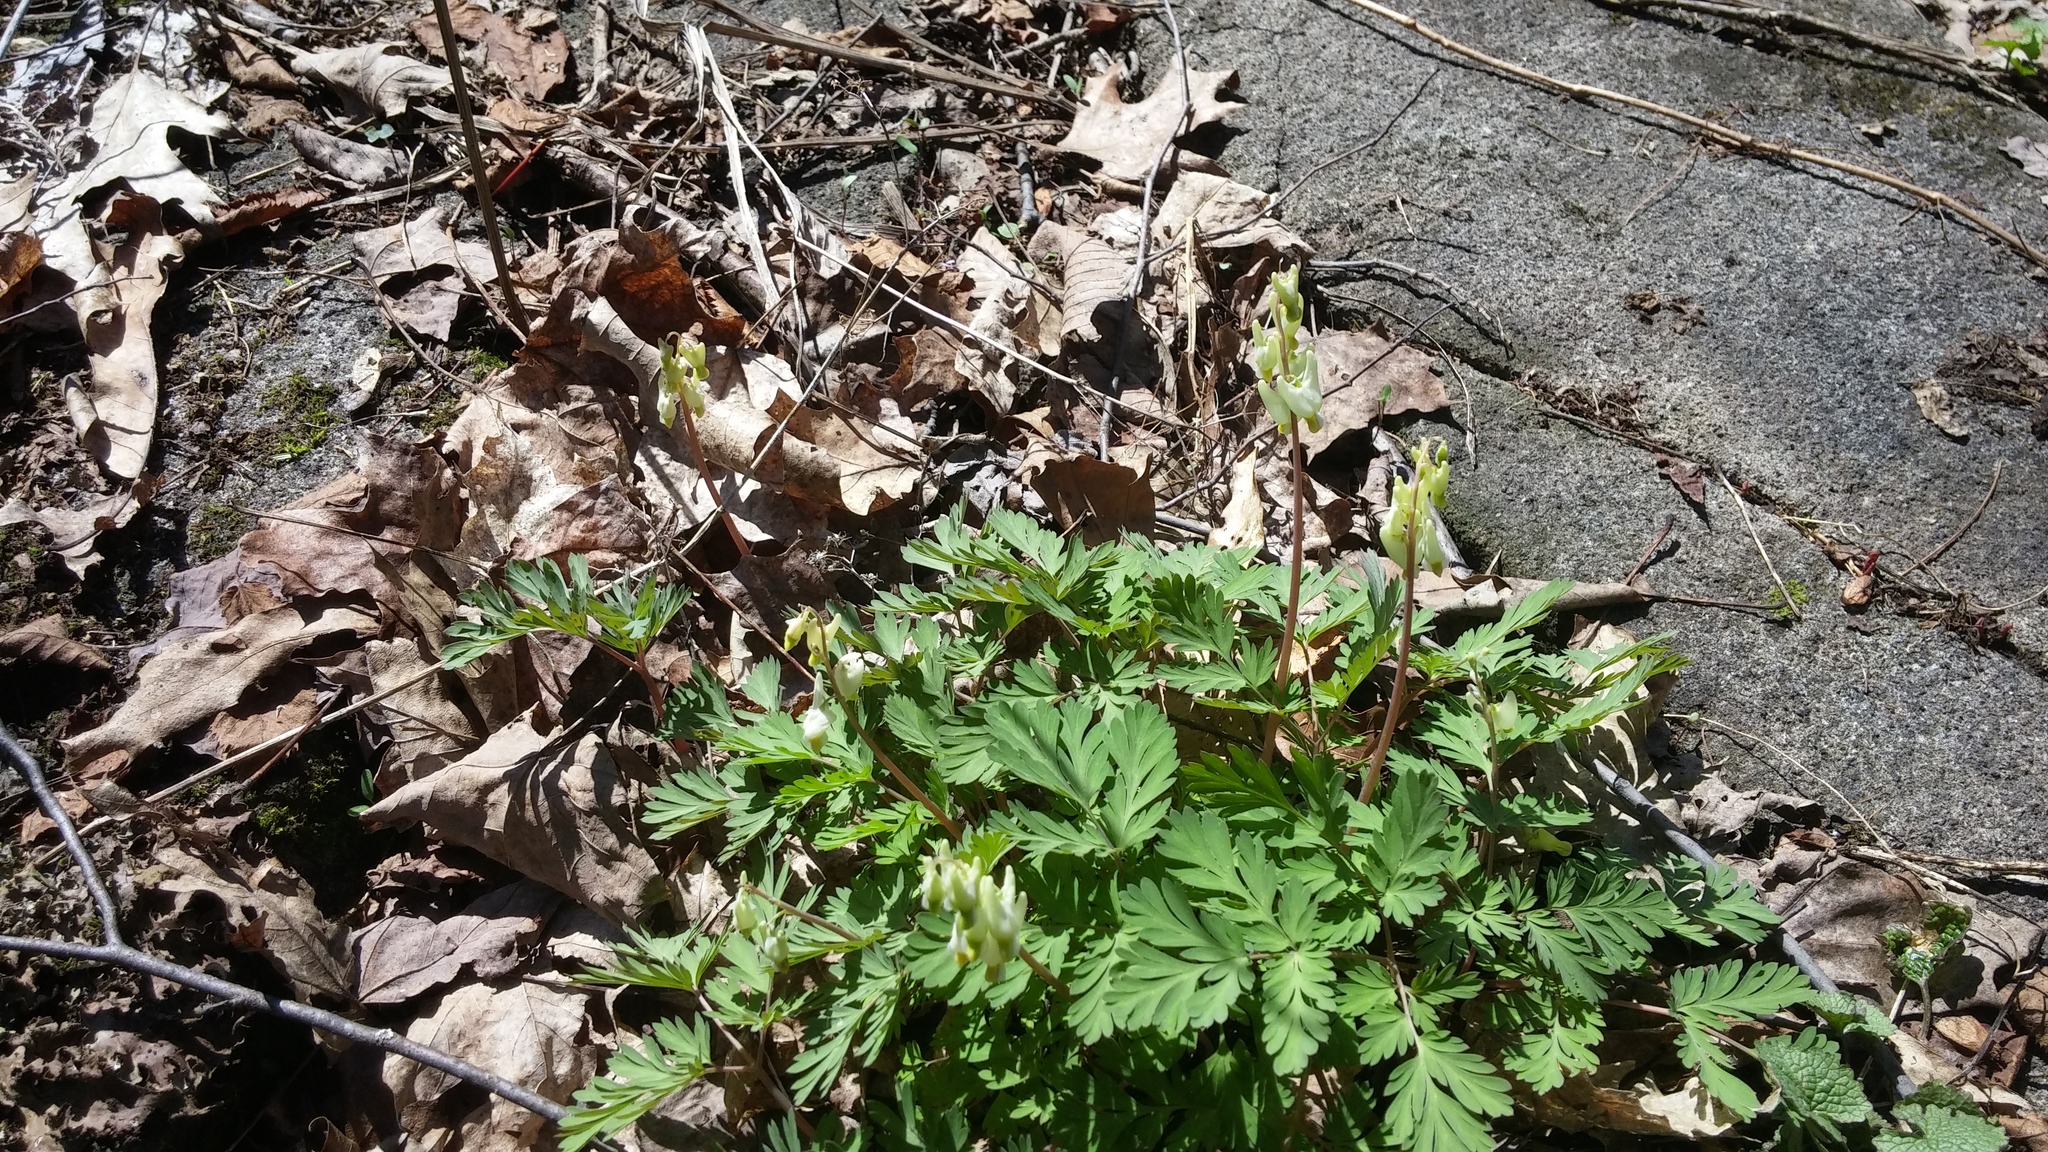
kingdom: Plantae
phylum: Tracheophyta
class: Magnoliopsida
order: Ranunculales
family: Papaveraceae
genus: Dicentra
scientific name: Dicentra cucullaria
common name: Dutchman's breeches
